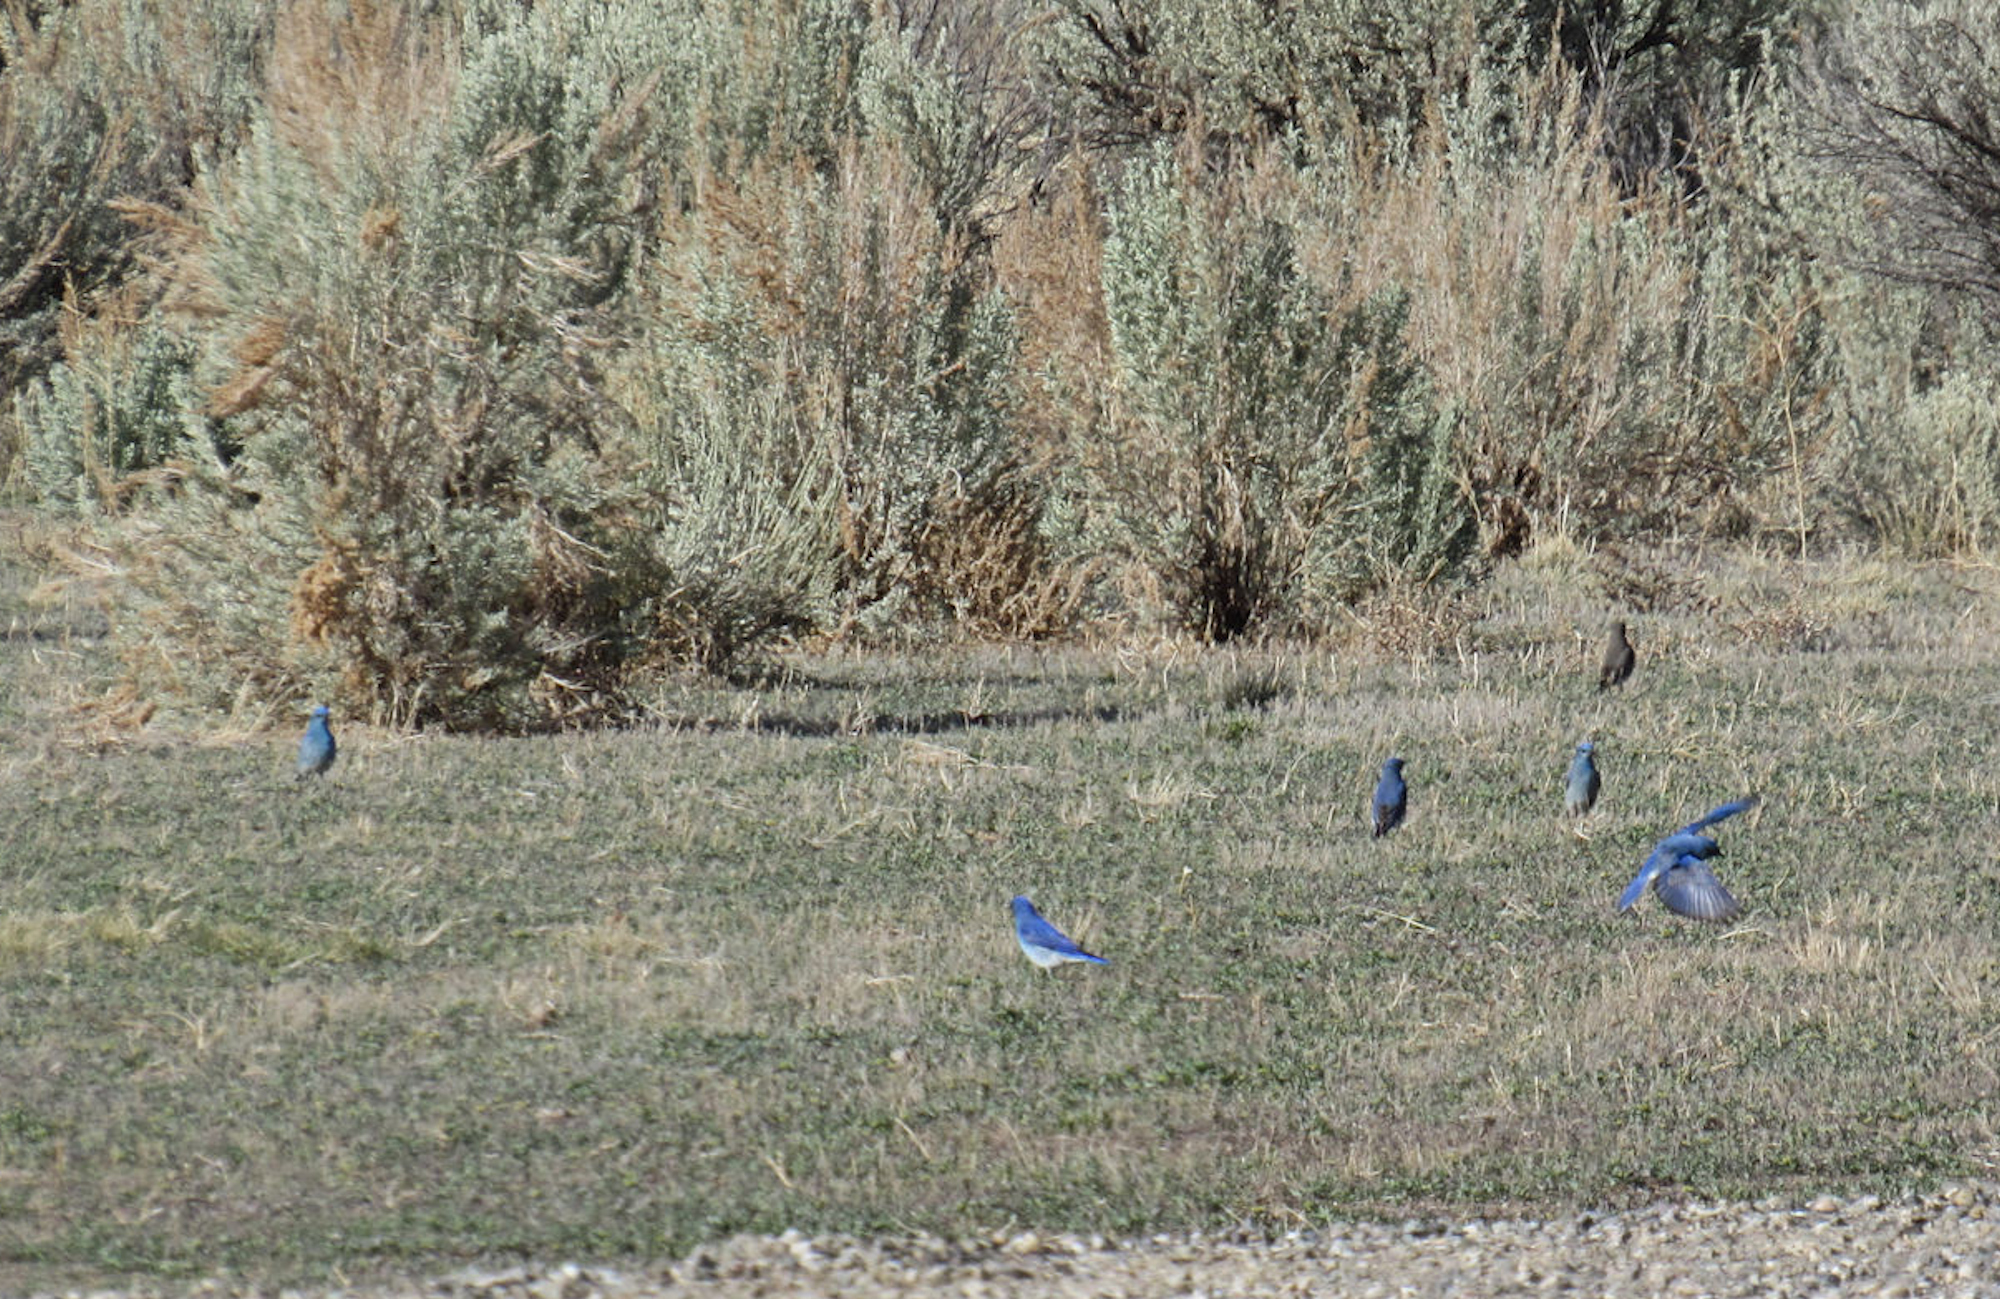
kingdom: Animalia
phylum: Chordata
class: Aves
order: Passeriformes
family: Turdidae
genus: Sialia
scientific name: Sialia currucoides
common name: Mountain bluebird
